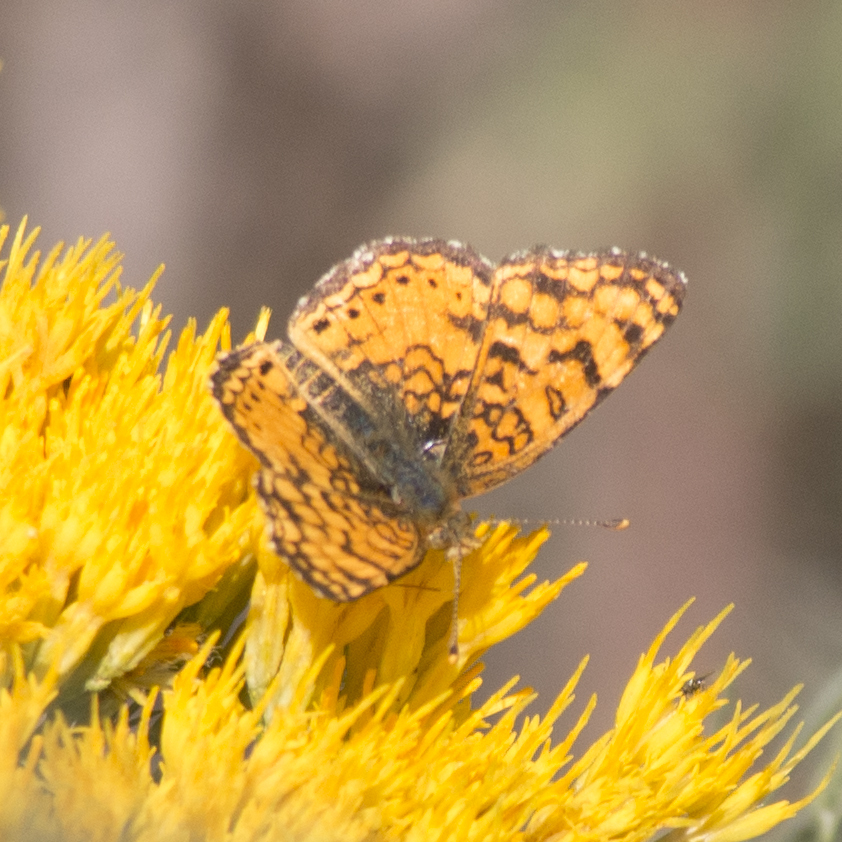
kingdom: Animalia
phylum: Arthropoda
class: Insecta
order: Lepidoptera
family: Nymphalidae
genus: Eresia
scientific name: Eresia aveyrona
